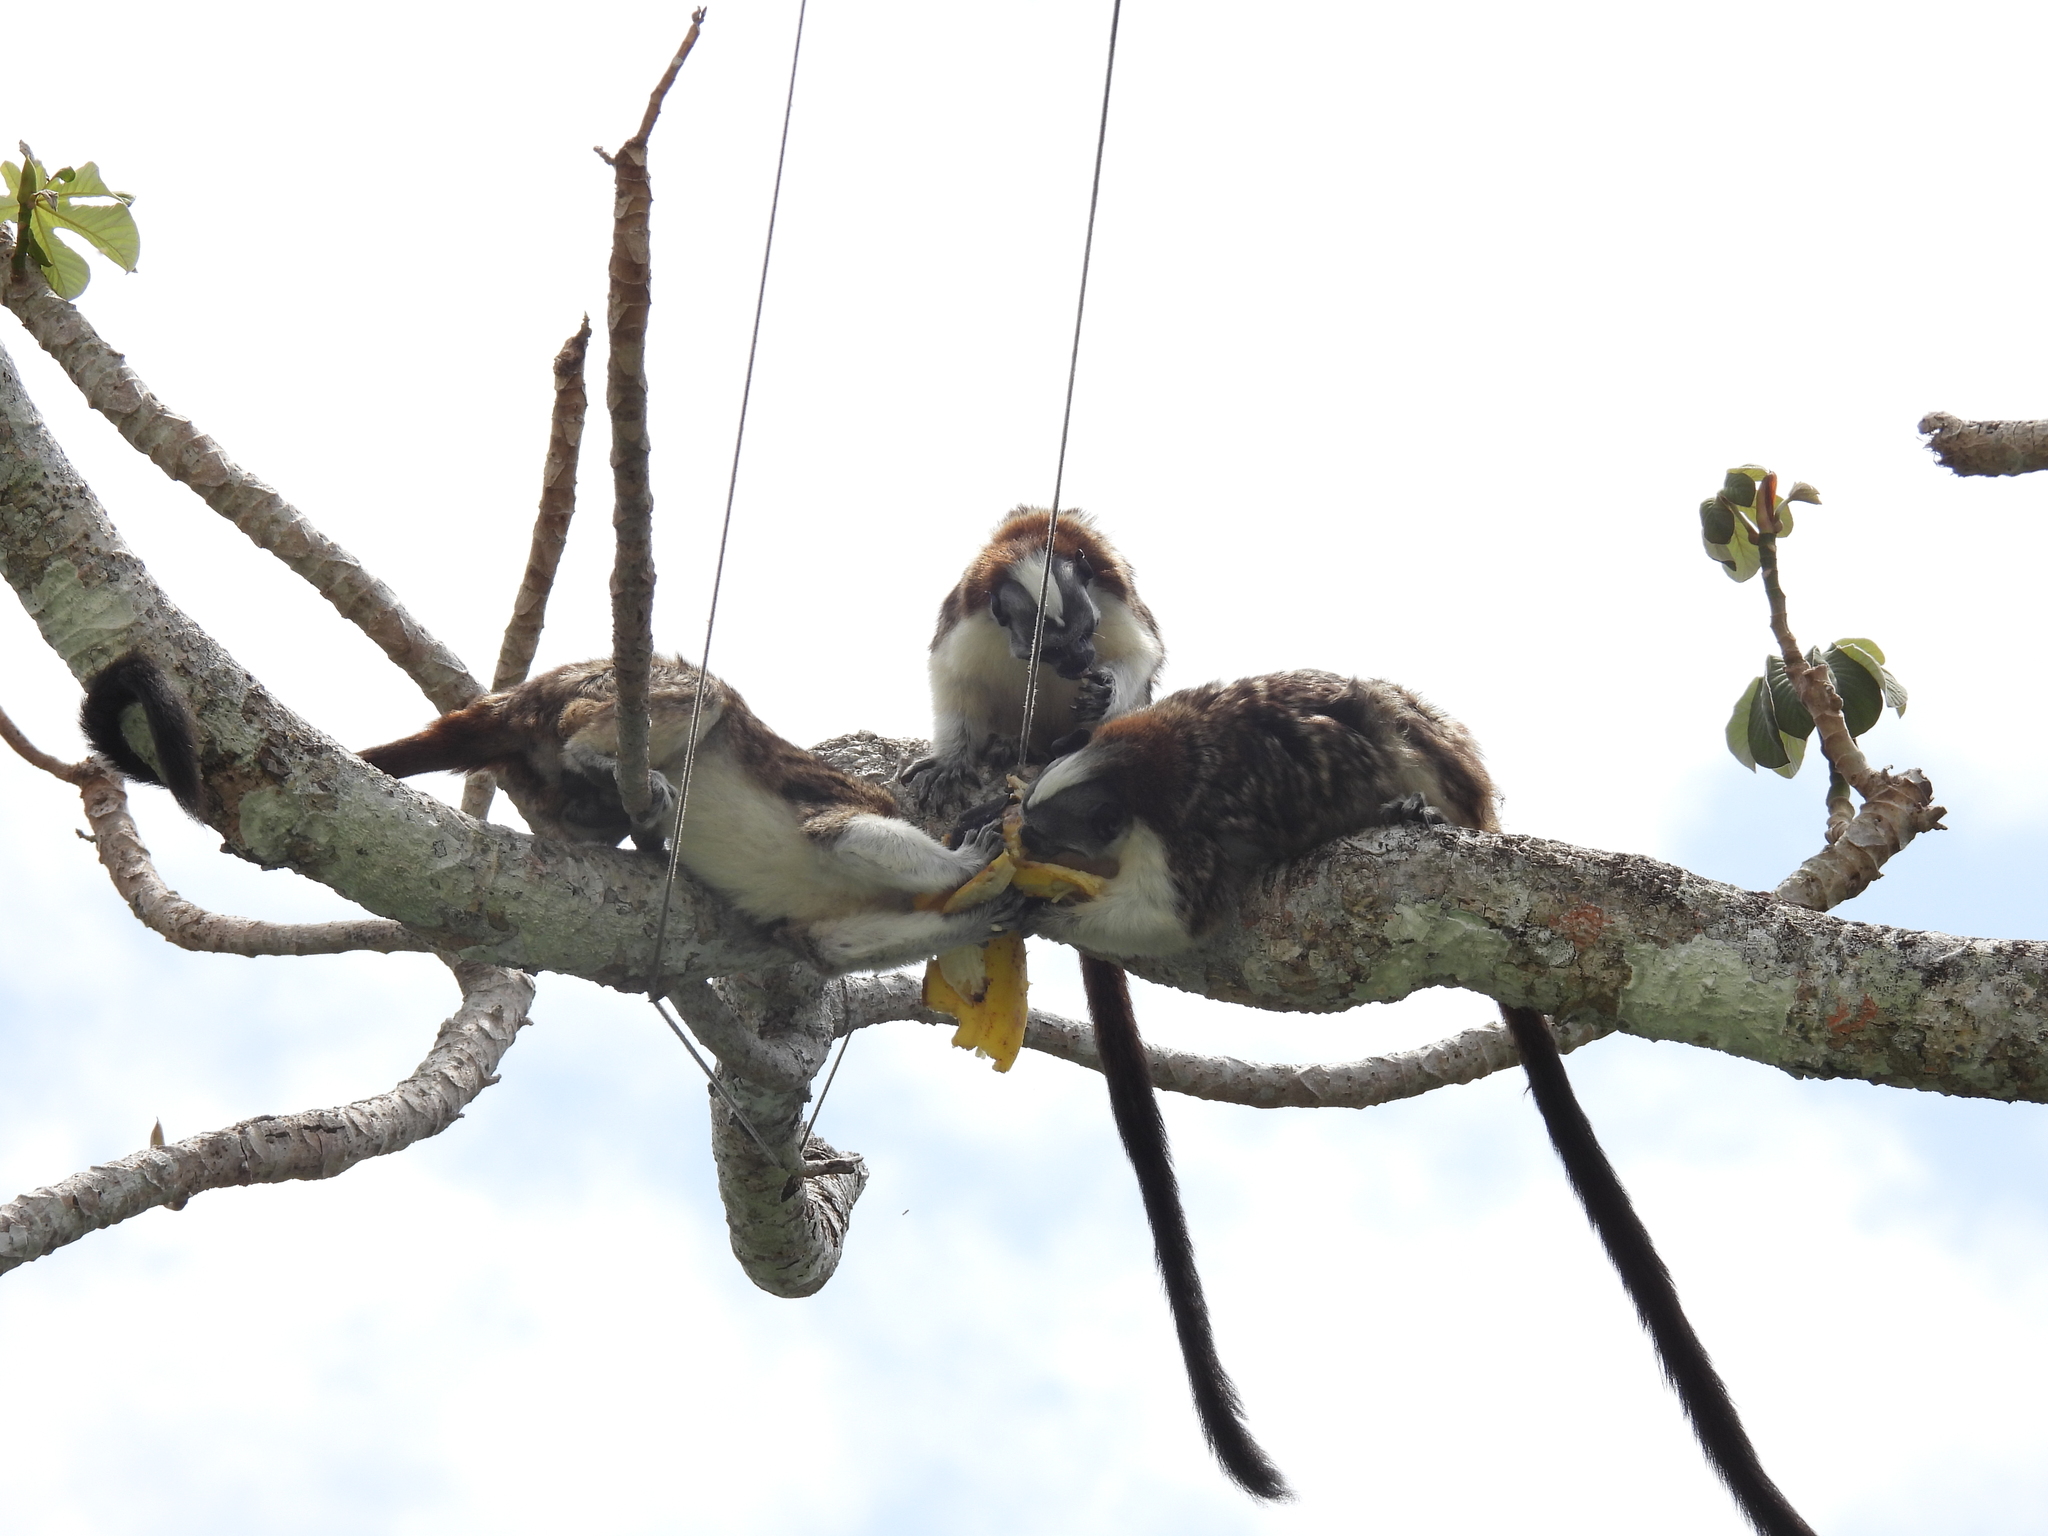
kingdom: Animalia
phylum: Chordata
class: Mammalia
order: Primates
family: Callitrichidae
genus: Saguinus
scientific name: Saguinus geoffroyi
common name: Geoffroy s tamarin
